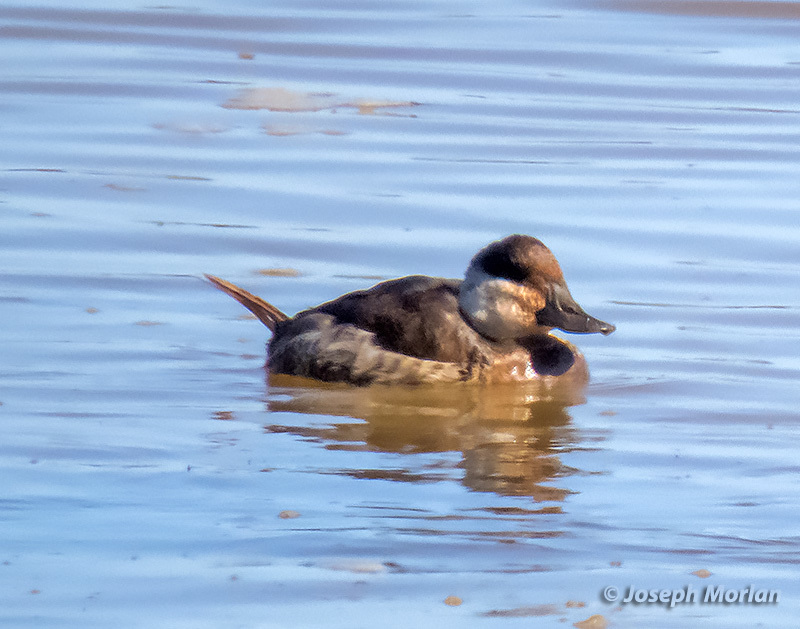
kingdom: Animalia
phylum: Chordata
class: Aves
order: Anseriformes
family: Anatidae
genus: Oxyura
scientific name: Oxyura jamaicensis
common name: Ruddy duck
